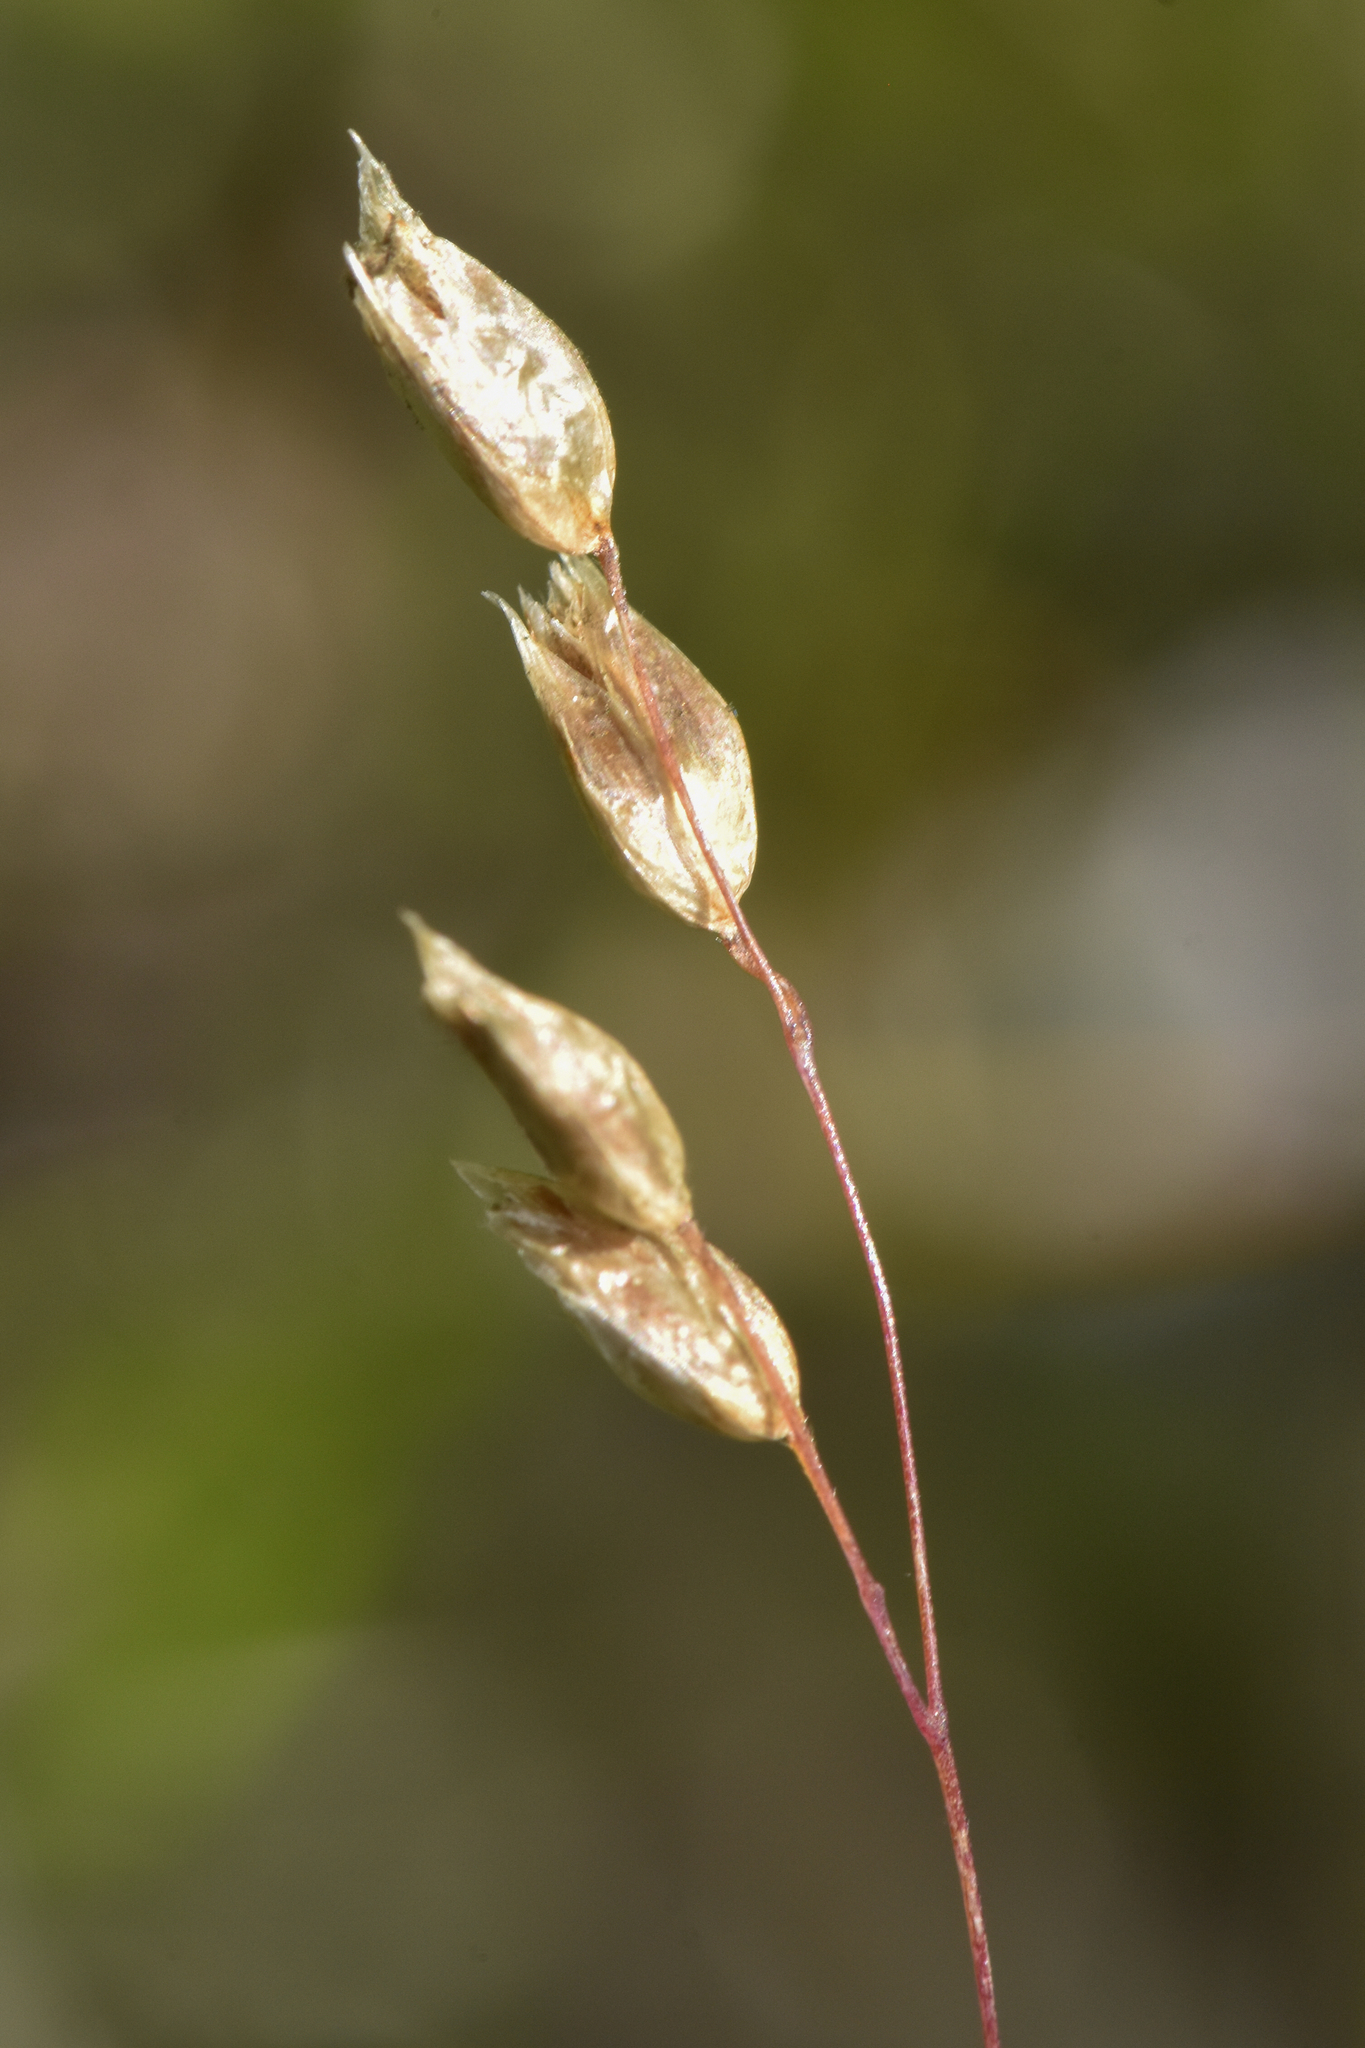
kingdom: Plantae
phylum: Tracheophyta
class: Liliopsida
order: Poales
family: Poaceae
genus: Anthoxanthum
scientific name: Anthoxanthum nitens
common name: Holy grass
